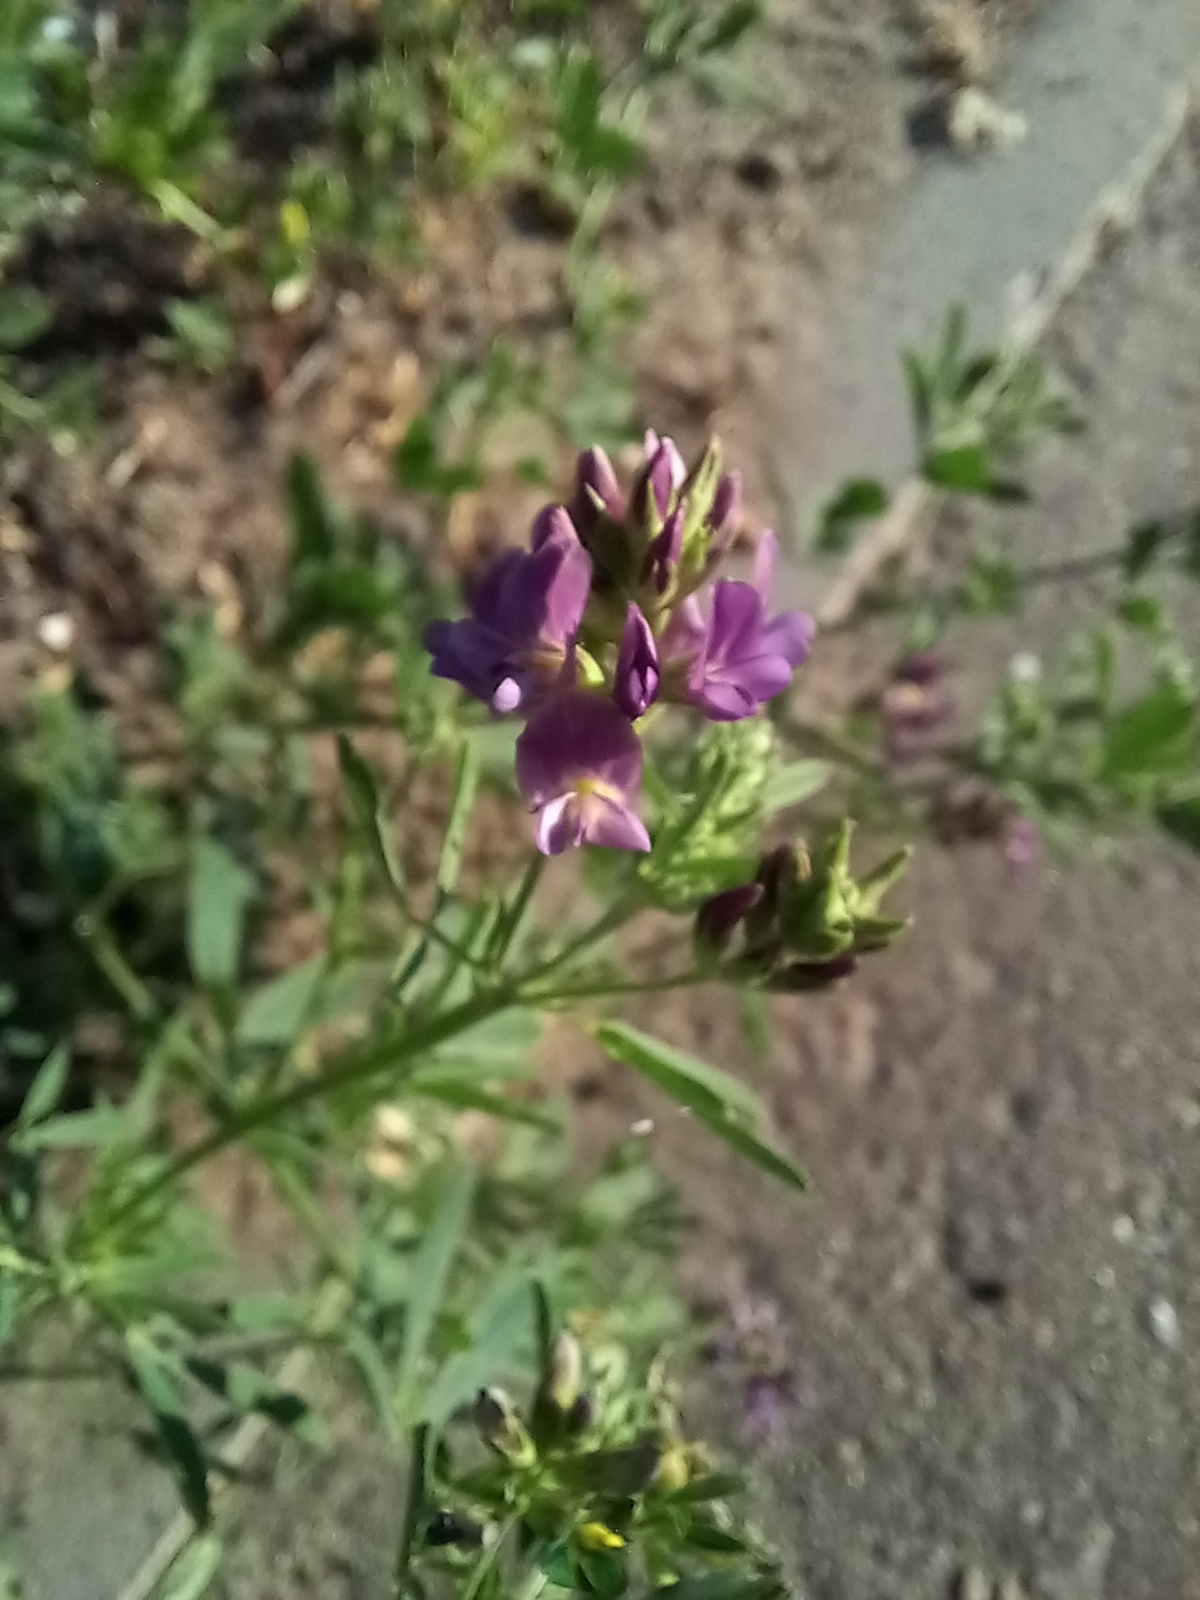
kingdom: Plantae
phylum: Tracheophyta
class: Magnoliopsida
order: Fabales
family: Fabaceae
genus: Medicago
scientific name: Medicago varia
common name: Sand lucerne
